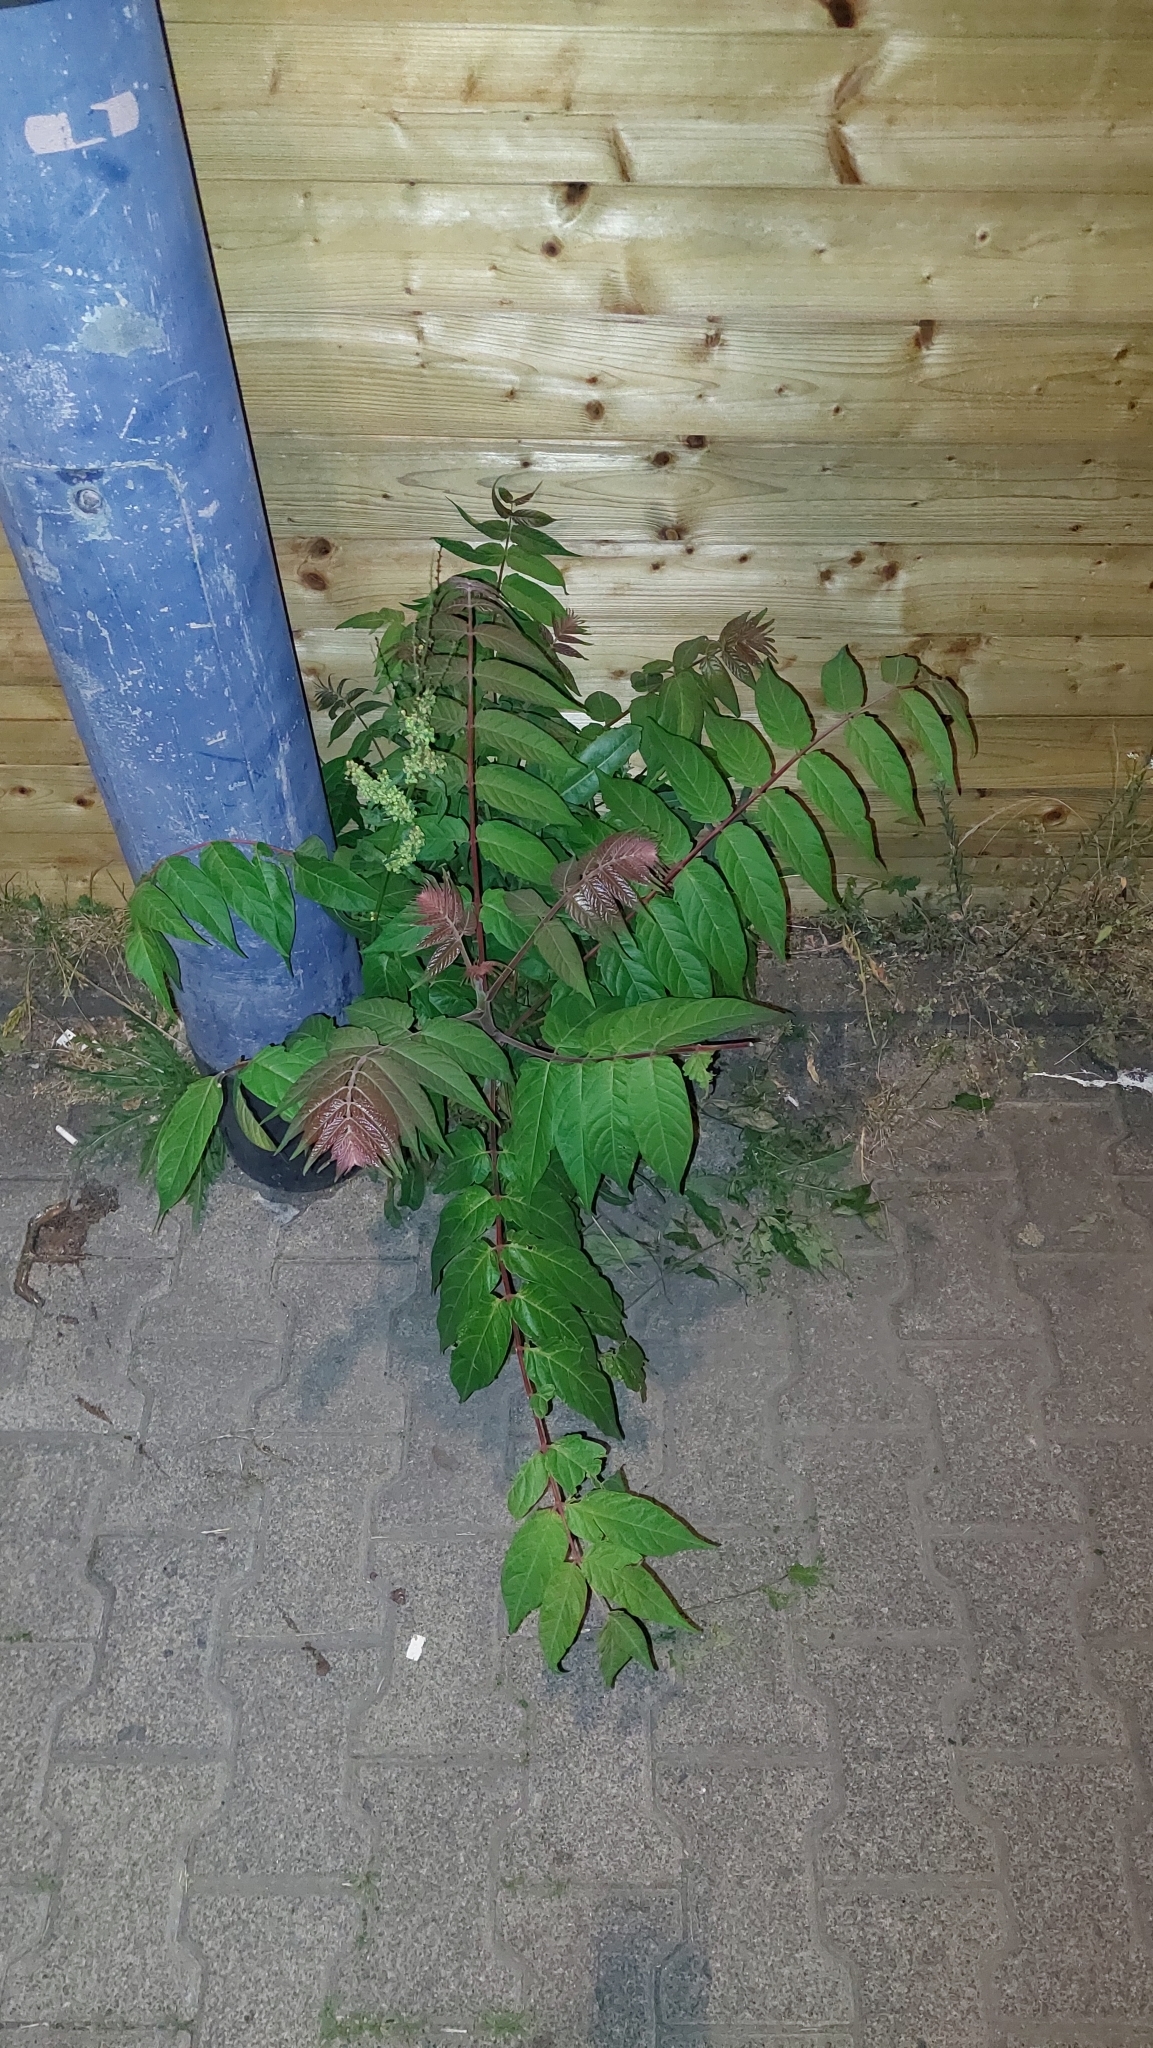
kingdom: Plantae
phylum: Tracheophyta
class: Magnoliopsida
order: Sapindales
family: Simaroubaceae
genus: Ailanthus
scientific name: Ailanthus altissima
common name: Tree-of-heaven
